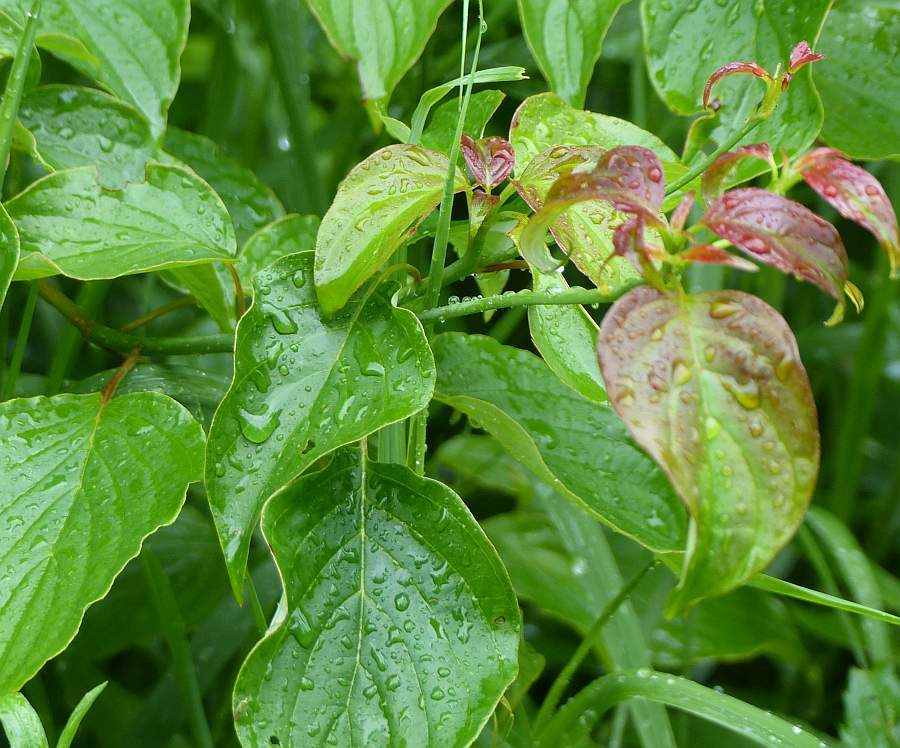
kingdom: Plantae
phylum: Tracheophyta
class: Magnoliopsida
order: Cornales
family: Cornaceae
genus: Cornus
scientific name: Cornus alternifolia
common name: Pagoda dogwood
